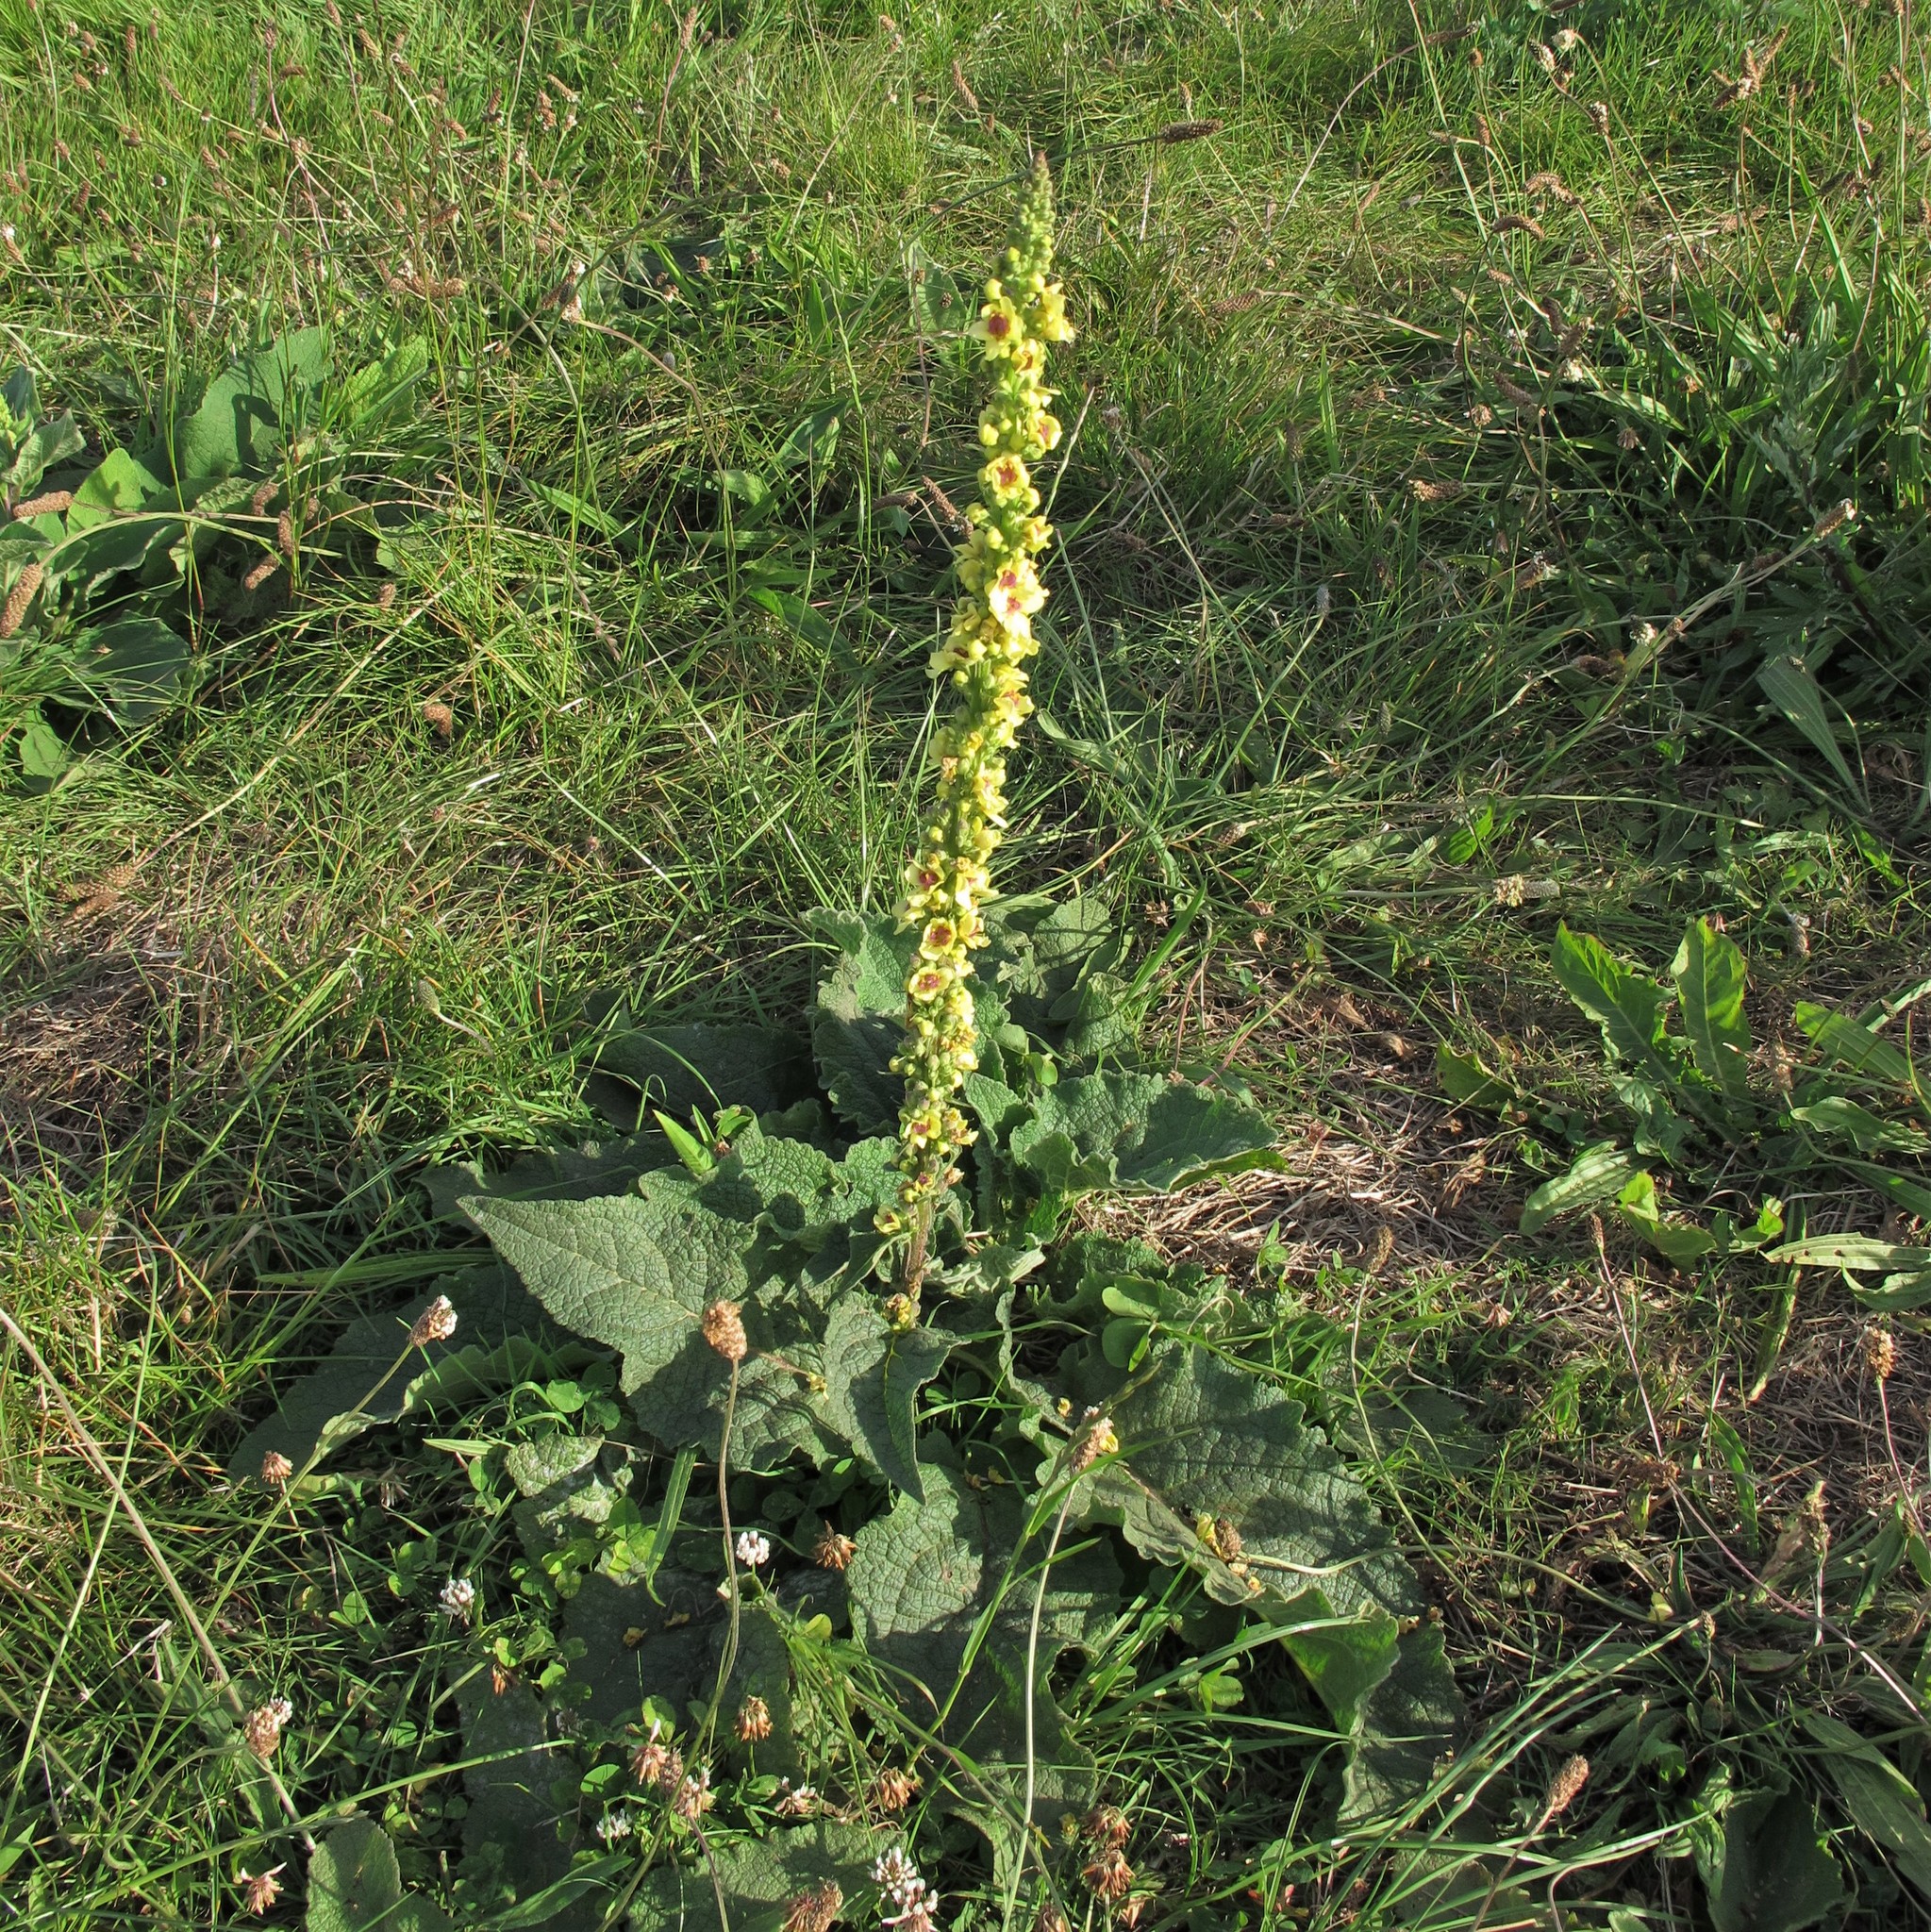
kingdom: Plantae
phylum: Tracheophyta
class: Magnoliopsida
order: Lamiales
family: Scrophulariaceae
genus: Verbascum
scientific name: Verbascum nigrum
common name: Dark mullein
